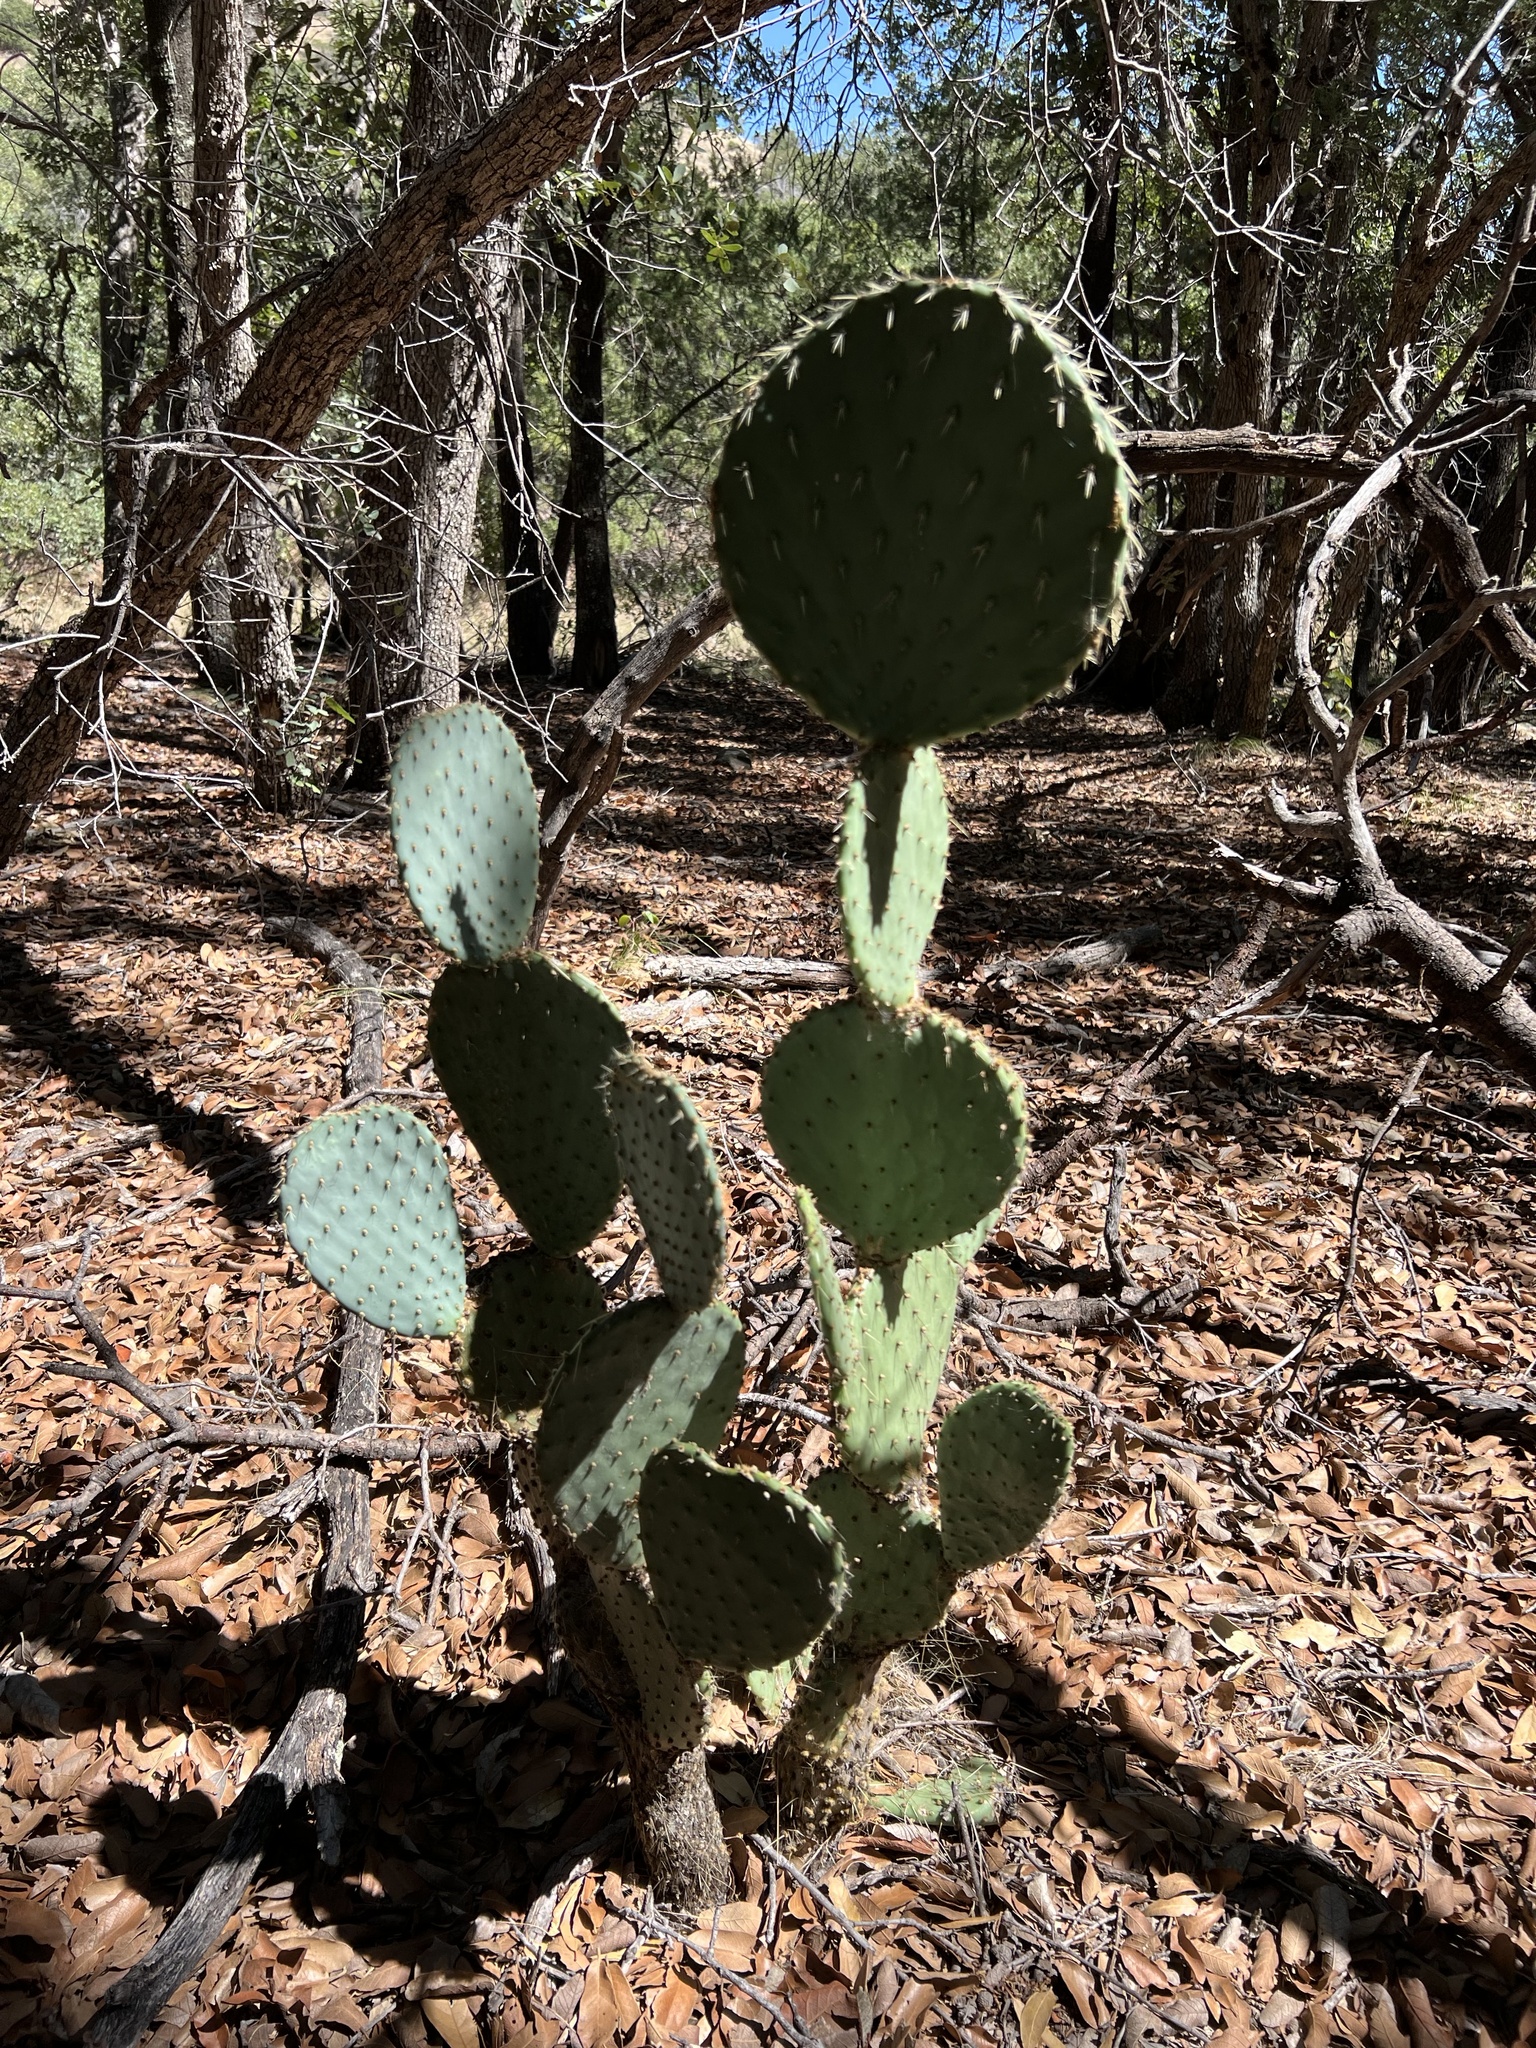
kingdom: Plantae
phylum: Tracheophyta
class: Magnoliopsida
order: Caryophyllales
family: Cactaceae
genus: Opuntia
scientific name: Opuntia chlorotica
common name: Dollar-joint prickly-pear
